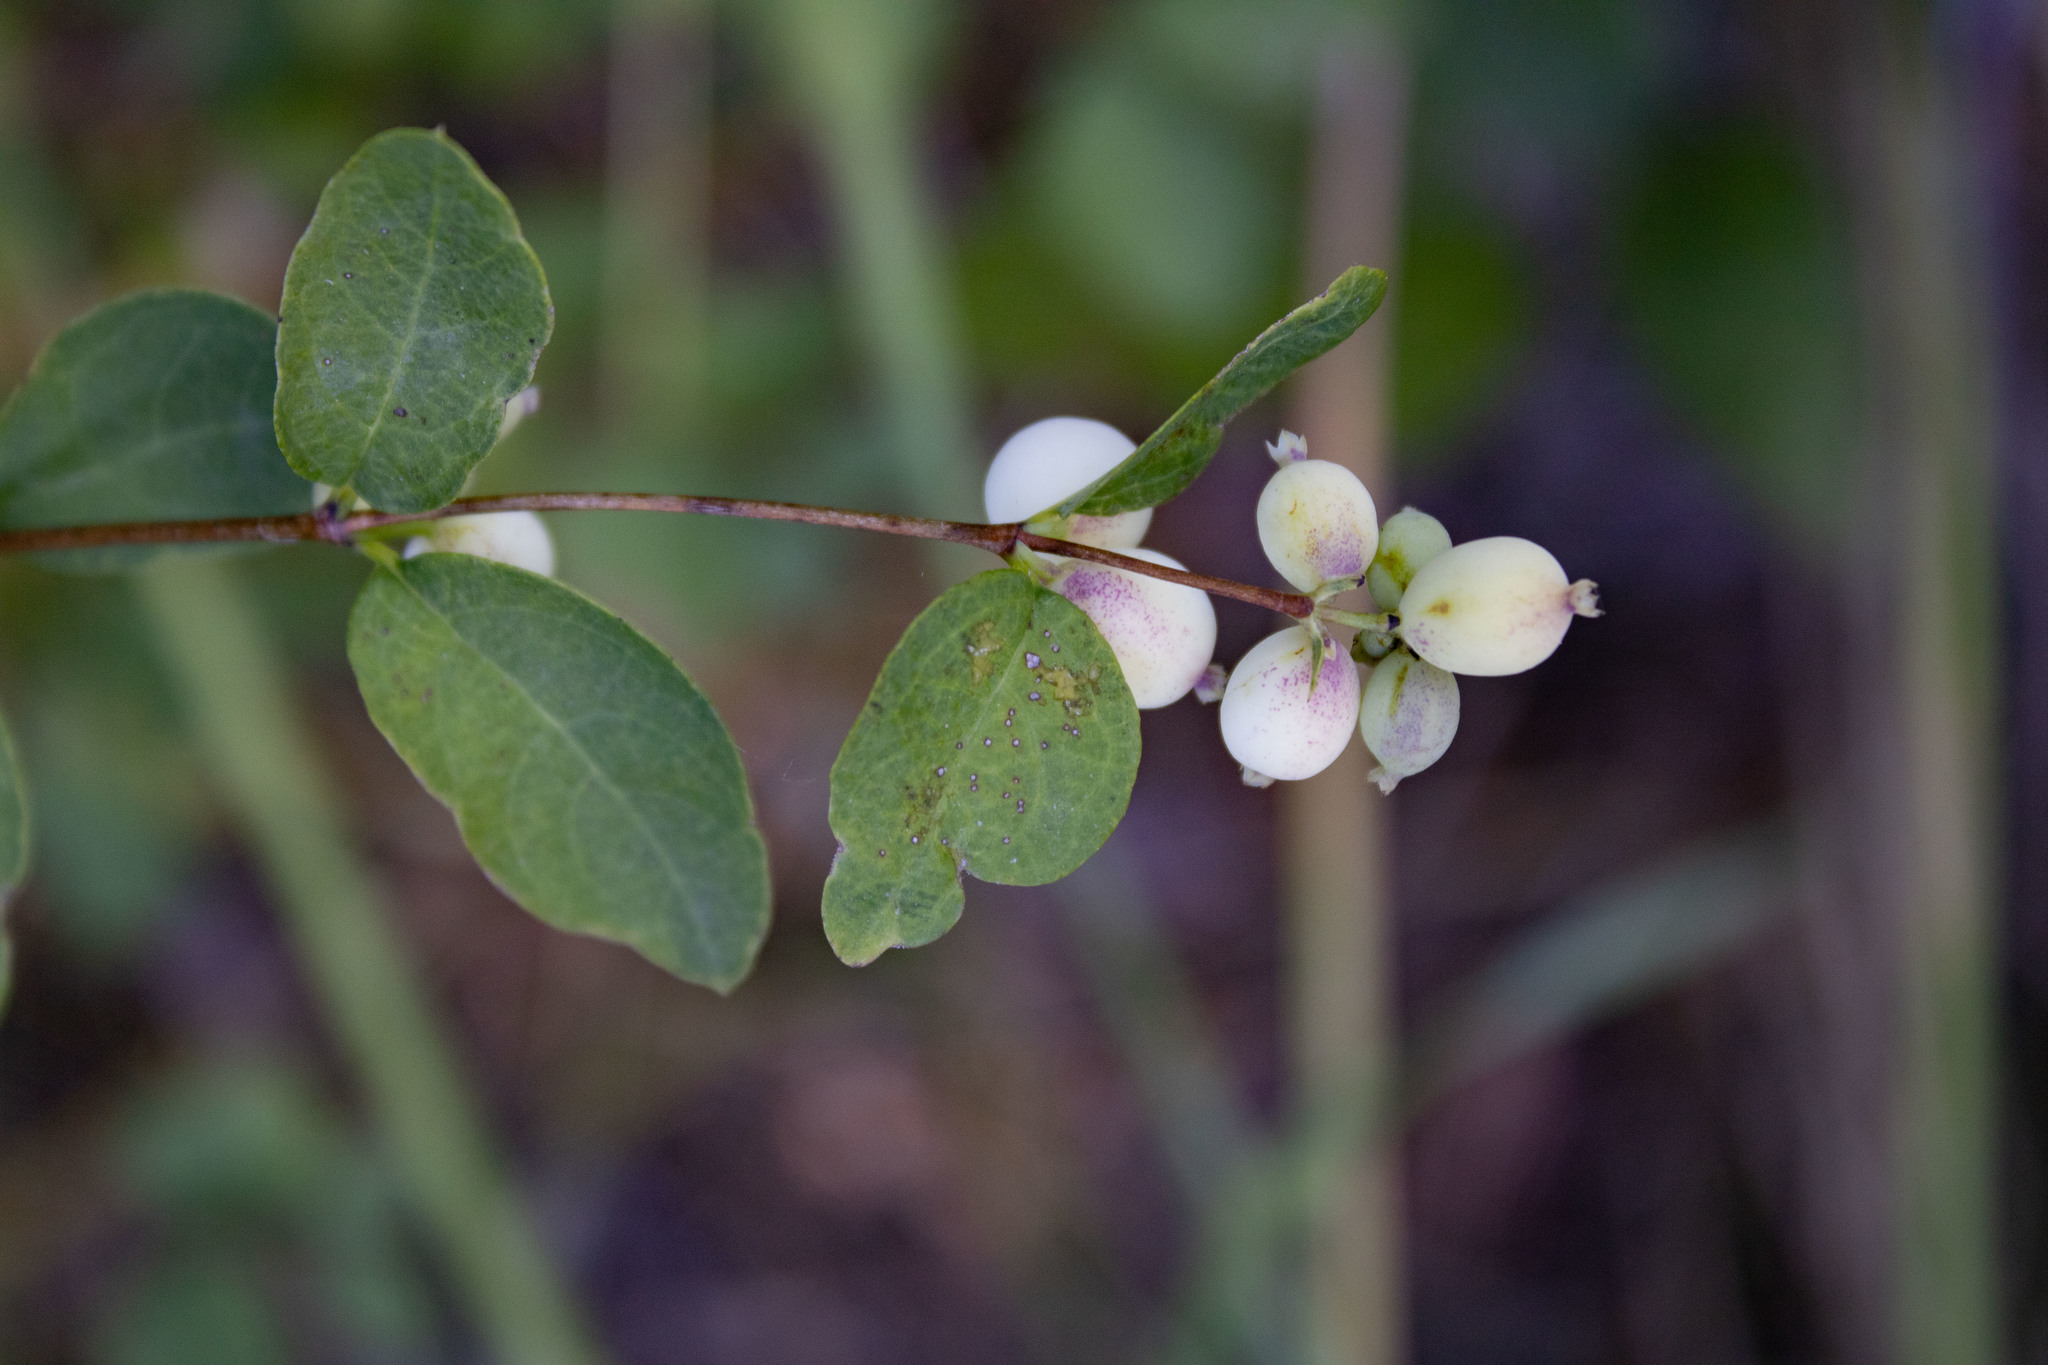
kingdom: Plantae
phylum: Tracheophyta
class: Magnoliopsida
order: Dipsacales
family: Caprifoliaceae
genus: Symphoricarpos
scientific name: Symphoricarpos albus
